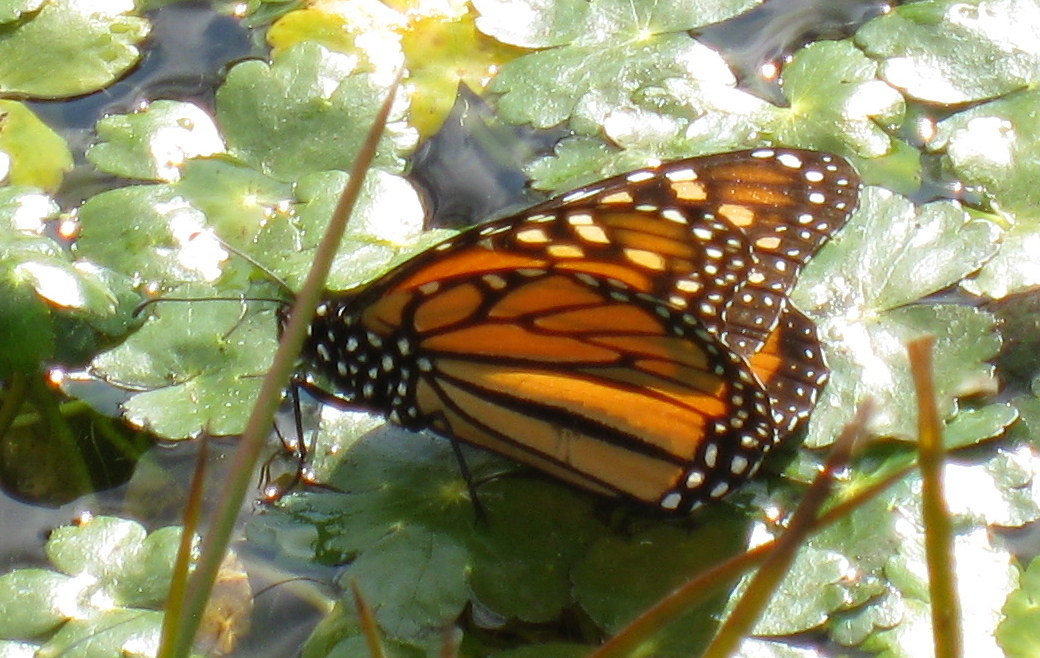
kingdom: Animalia
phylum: Arthropoda
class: Insecta
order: Lepidoptera
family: Nymphalidae
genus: Danaus
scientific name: Danaus plexippus
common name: Monarch
